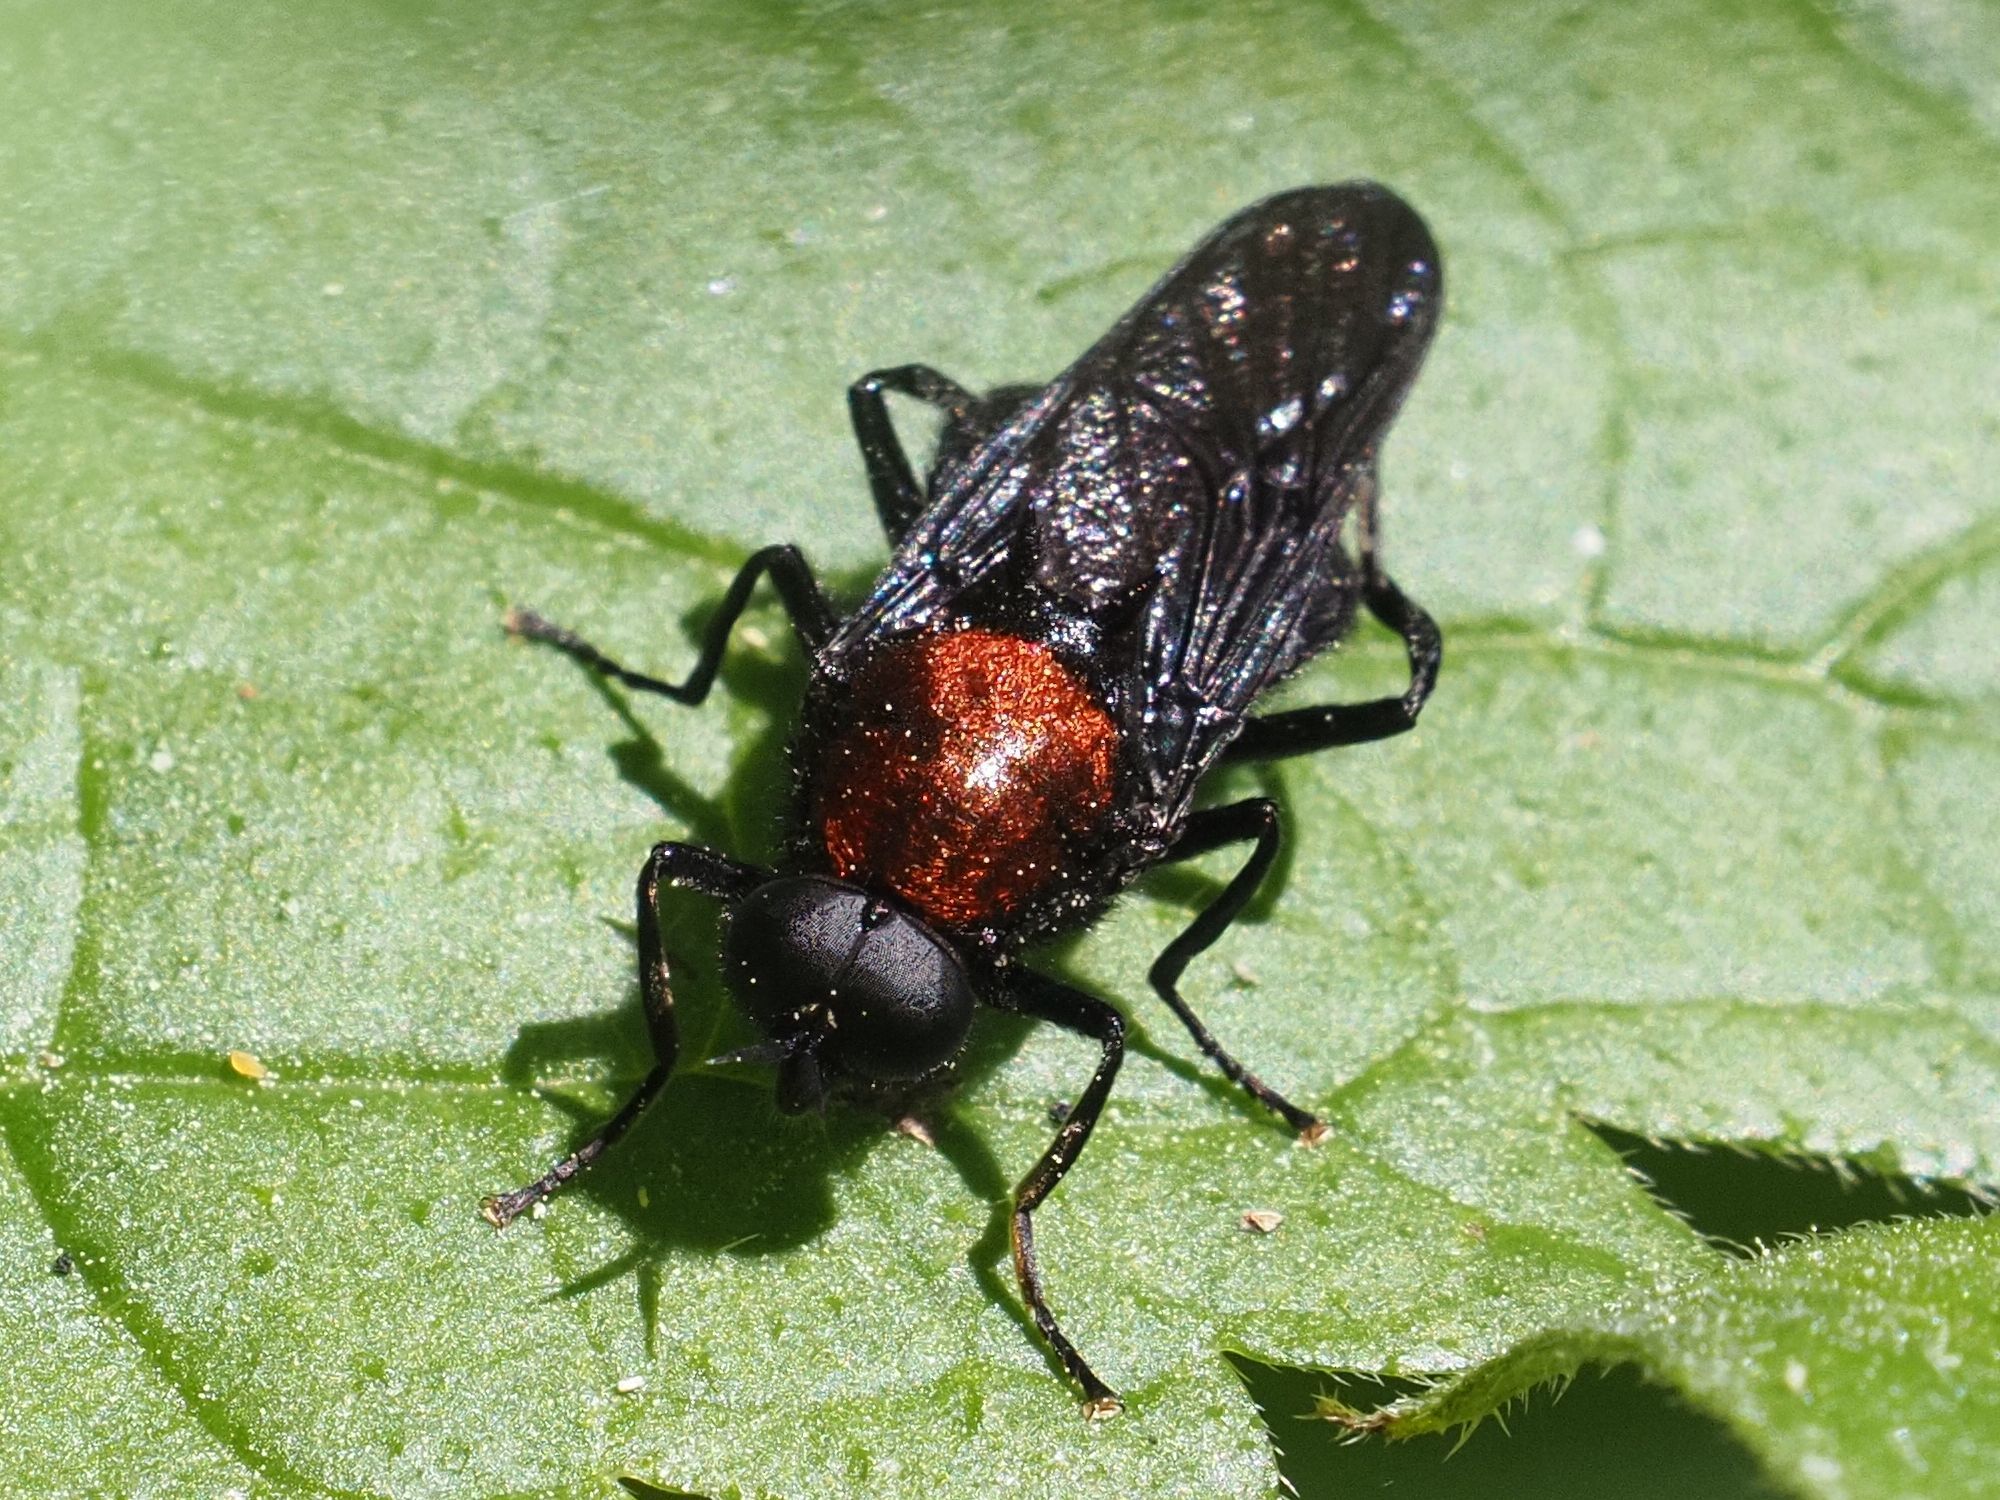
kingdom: Animalia
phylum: Arthropoda
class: Insecta
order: Diptera
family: Stratiomyidae
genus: Clitellaria
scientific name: Clitellaria ephippium
